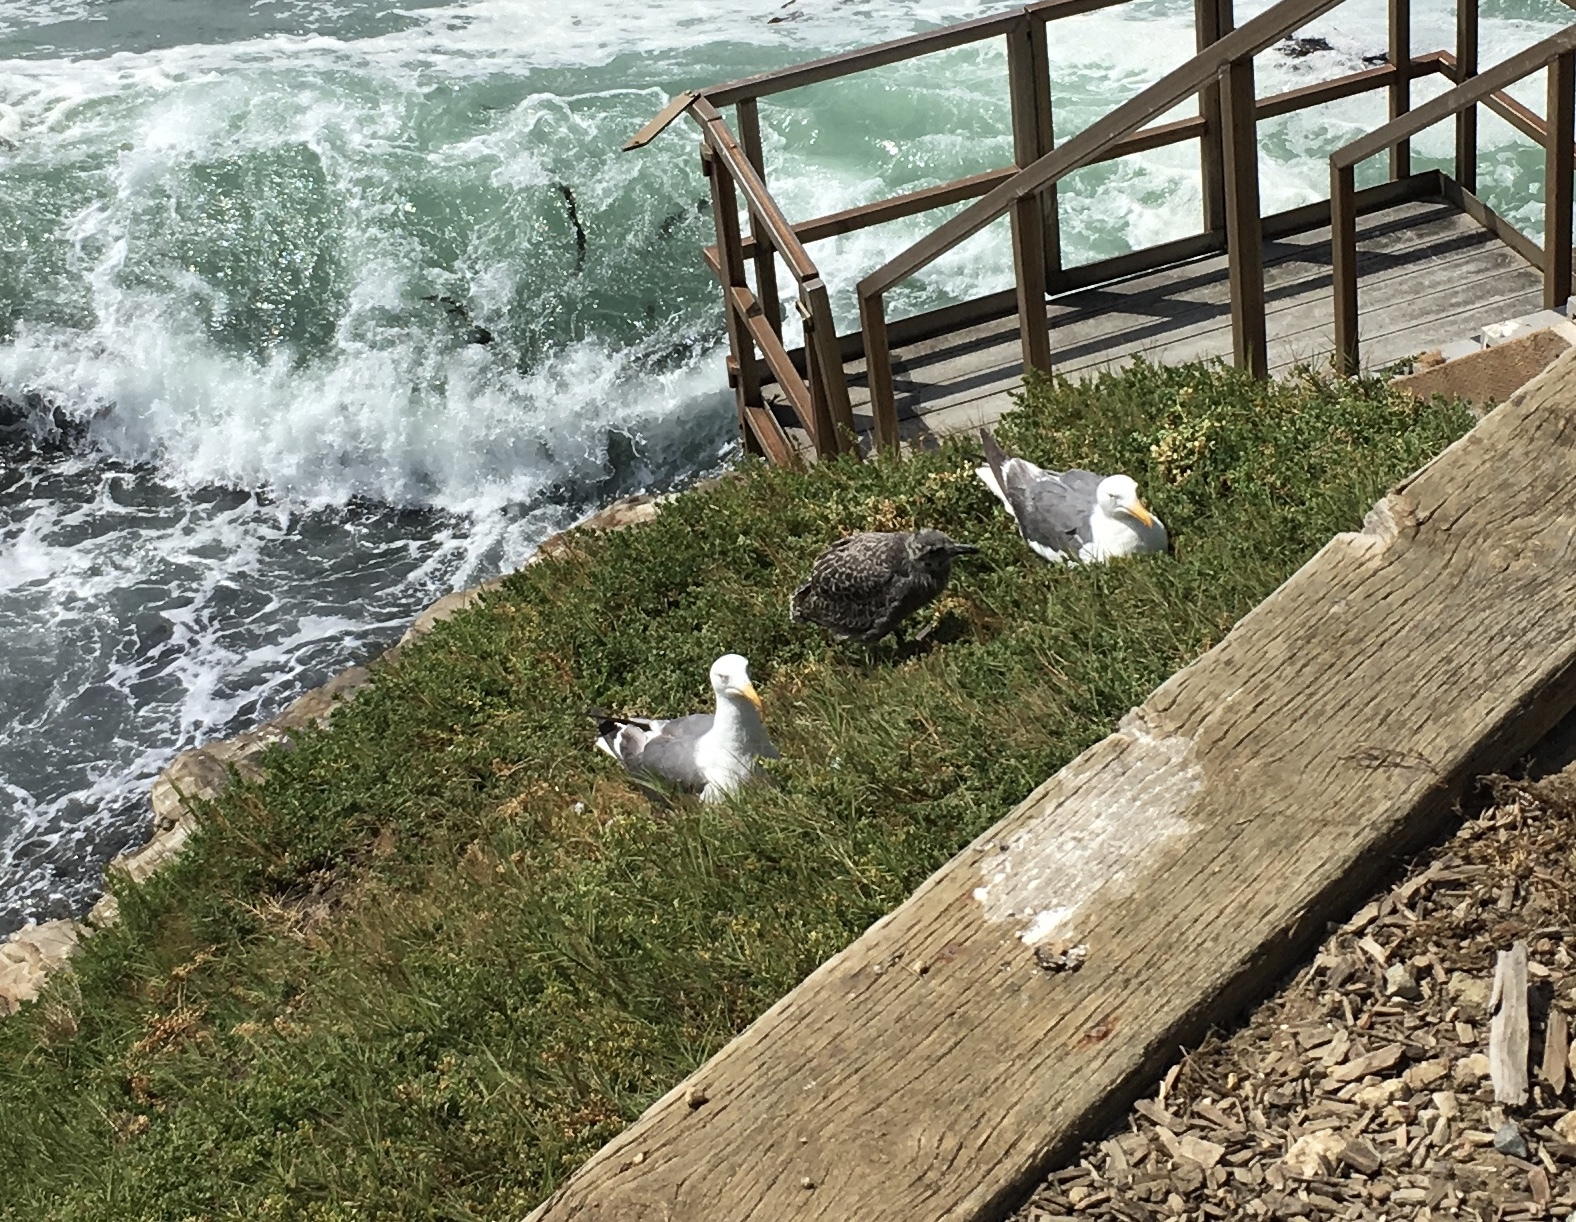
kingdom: Animalia
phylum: Chordata
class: Aves
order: Charadriiformes
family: Laridae
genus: Larus
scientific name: Larus occidentalis
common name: Western gull
